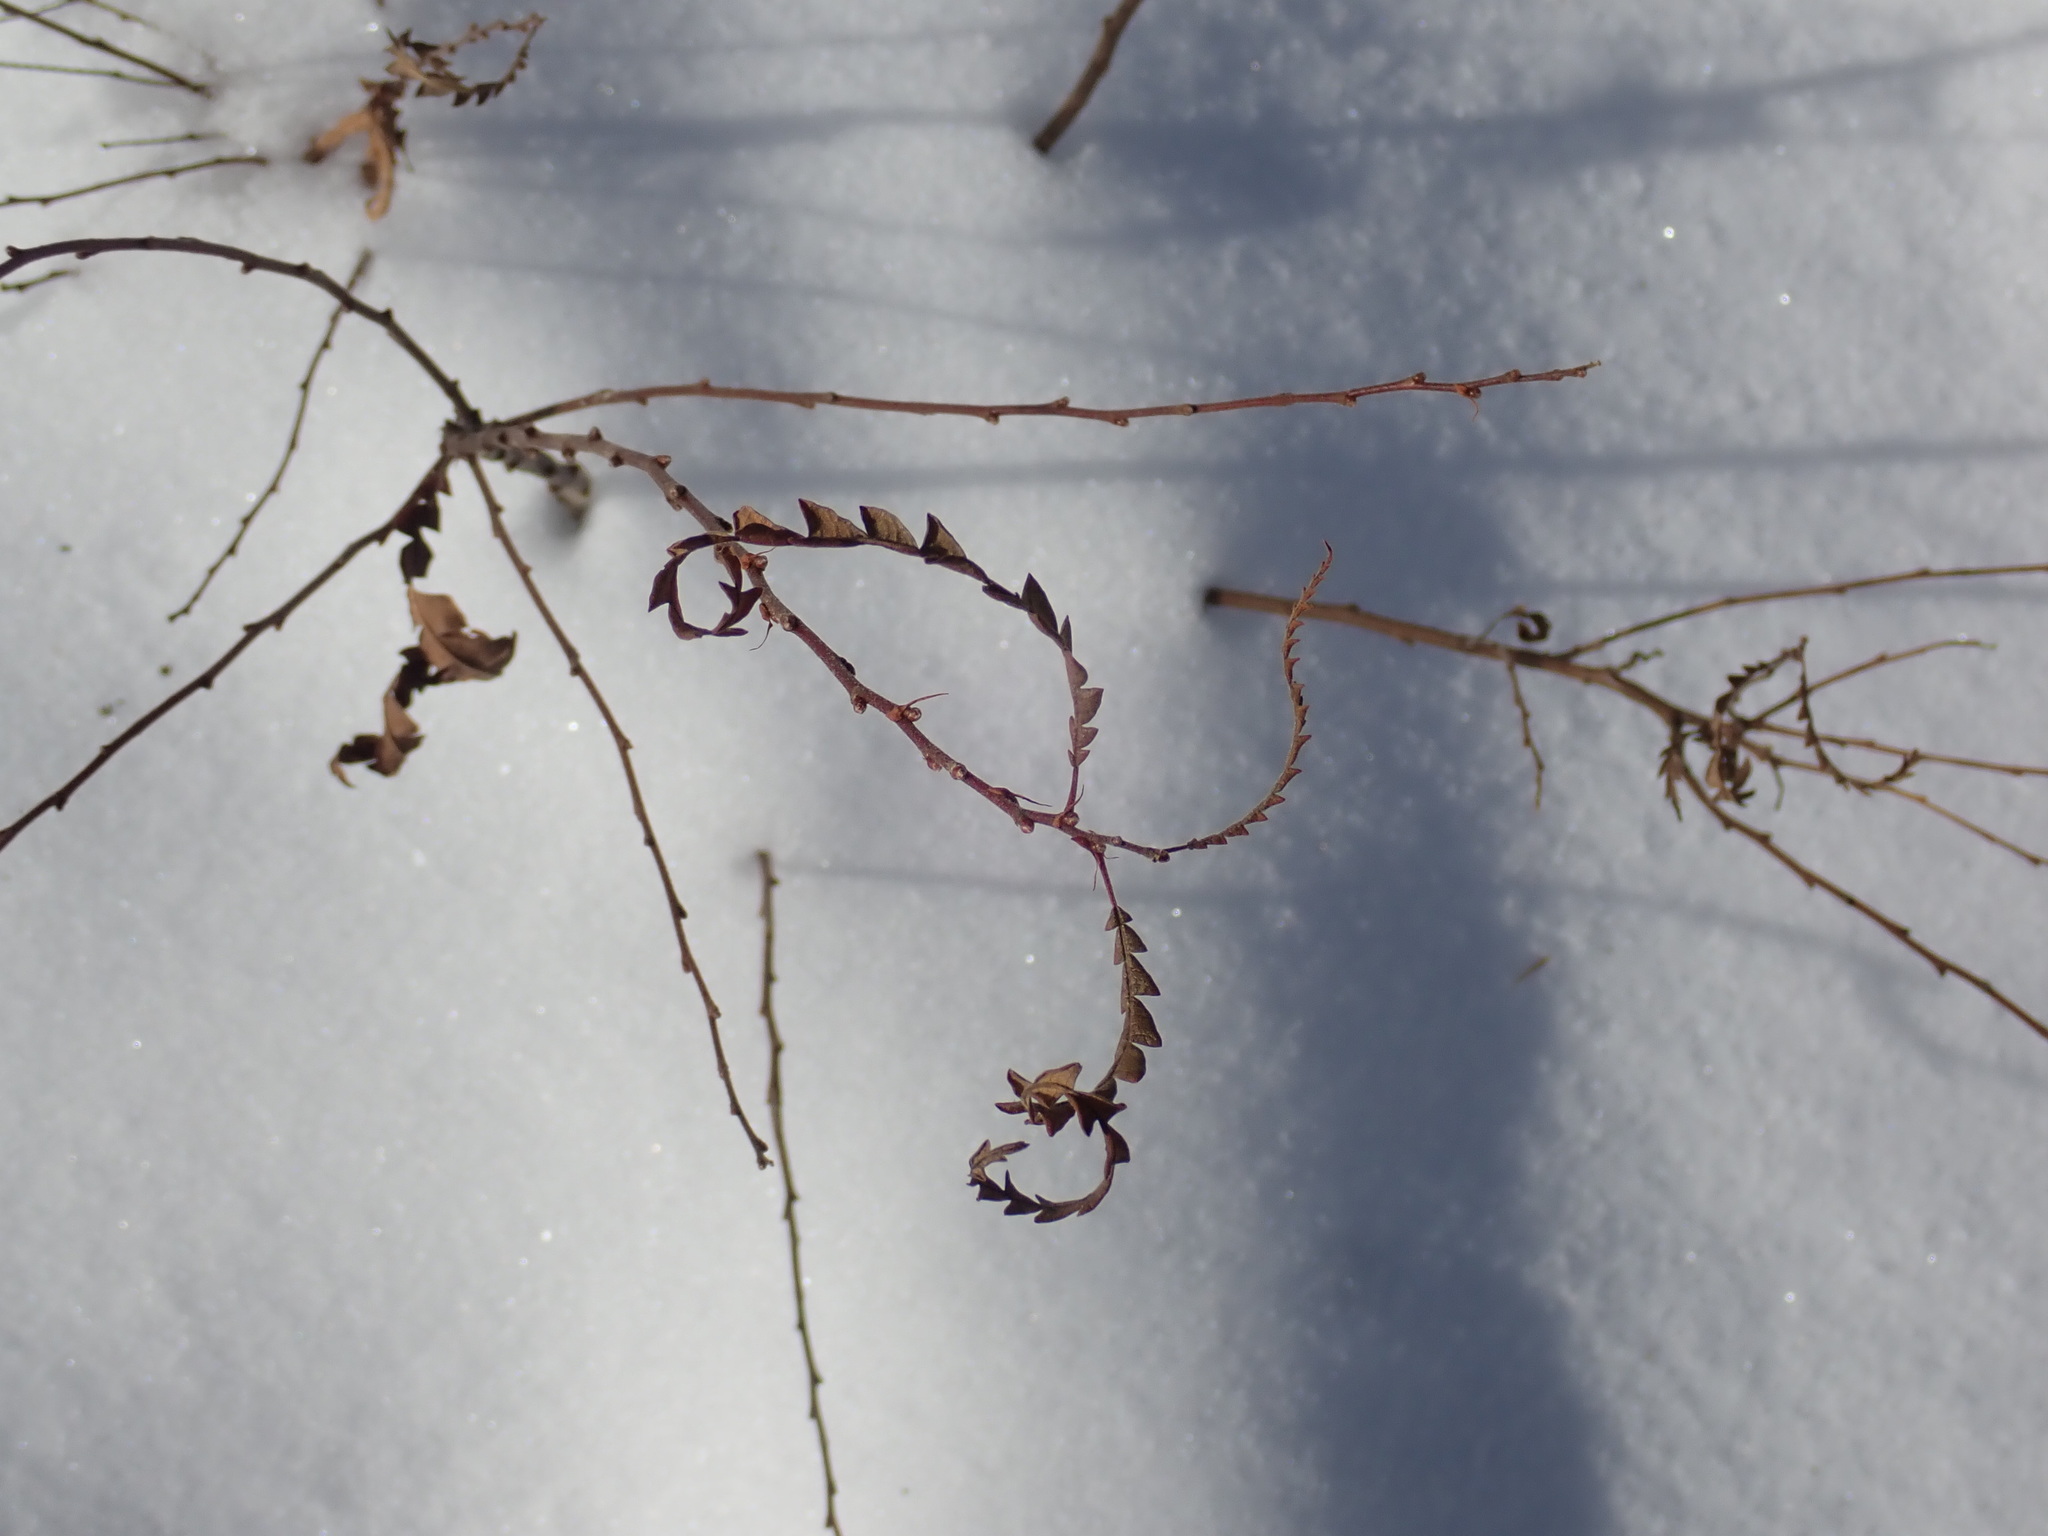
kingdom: Plantae
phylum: Tracheophyta
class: Magnoliopsida
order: Fagales
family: Myricaceae
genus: Comptonia
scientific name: Comptonia peregrina
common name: Sweet-fern
